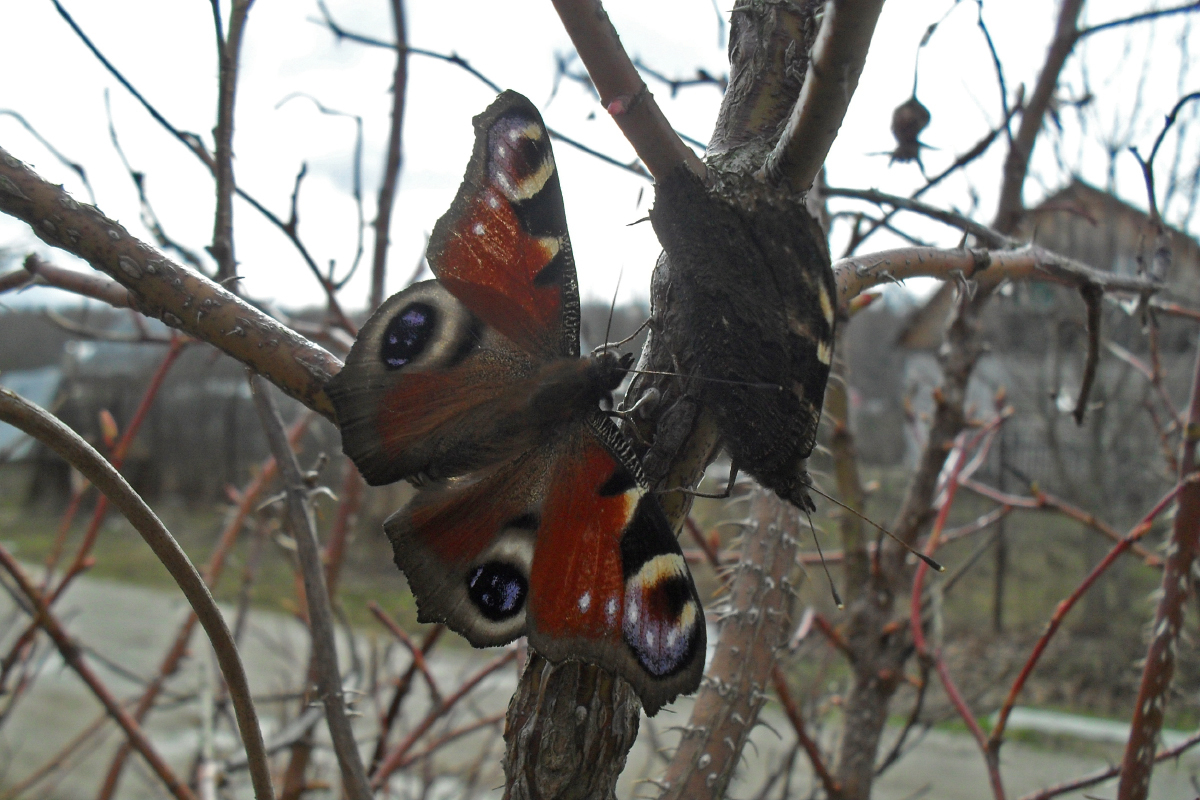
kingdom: Animalia
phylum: Arthropoda
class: Insecta
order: Lepidoptera
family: Nymphalidae
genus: Aglais
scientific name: Aglais io
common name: Peacock
